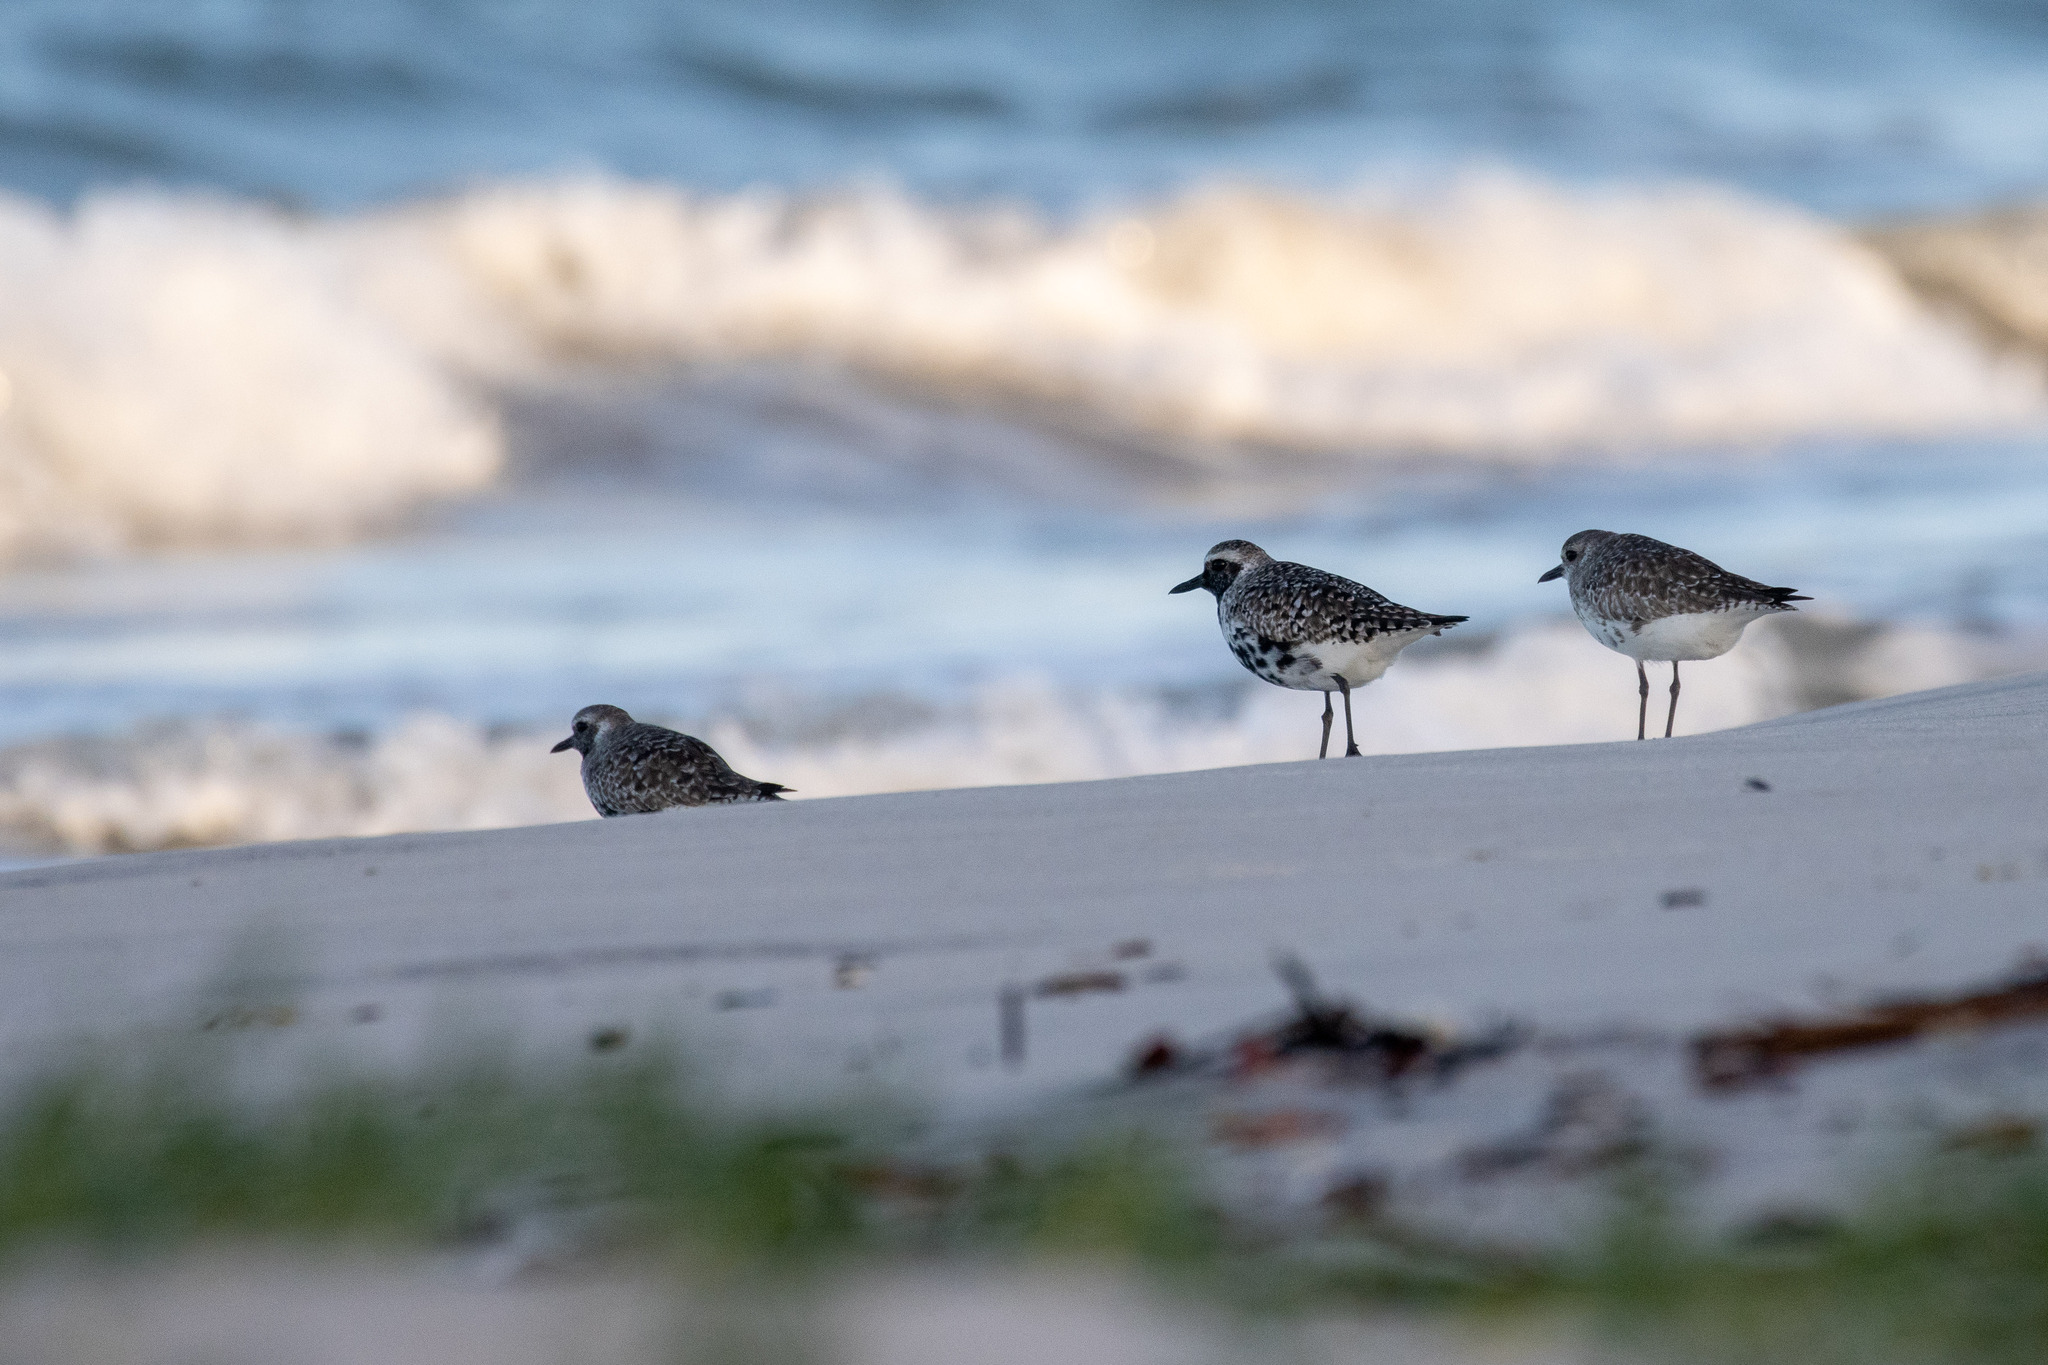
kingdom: Animalia
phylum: Chordata
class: Aves
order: Charadriiformes
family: Charadriidae
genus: Pluvialis
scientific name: Pluvialis squatarola
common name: Grey plover
